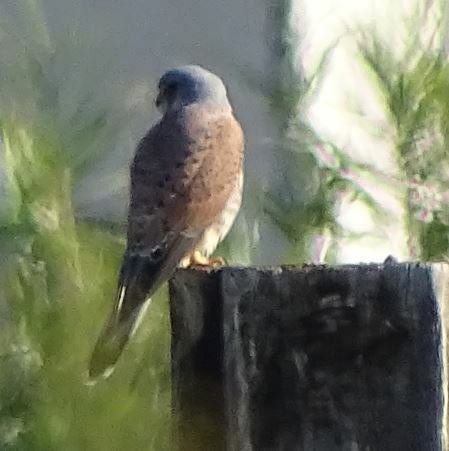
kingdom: Animalia
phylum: Chordata
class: Aves
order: Falconiformes
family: Falconidae
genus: Falco
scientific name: Falco tinnunculus
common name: Common kestrel
